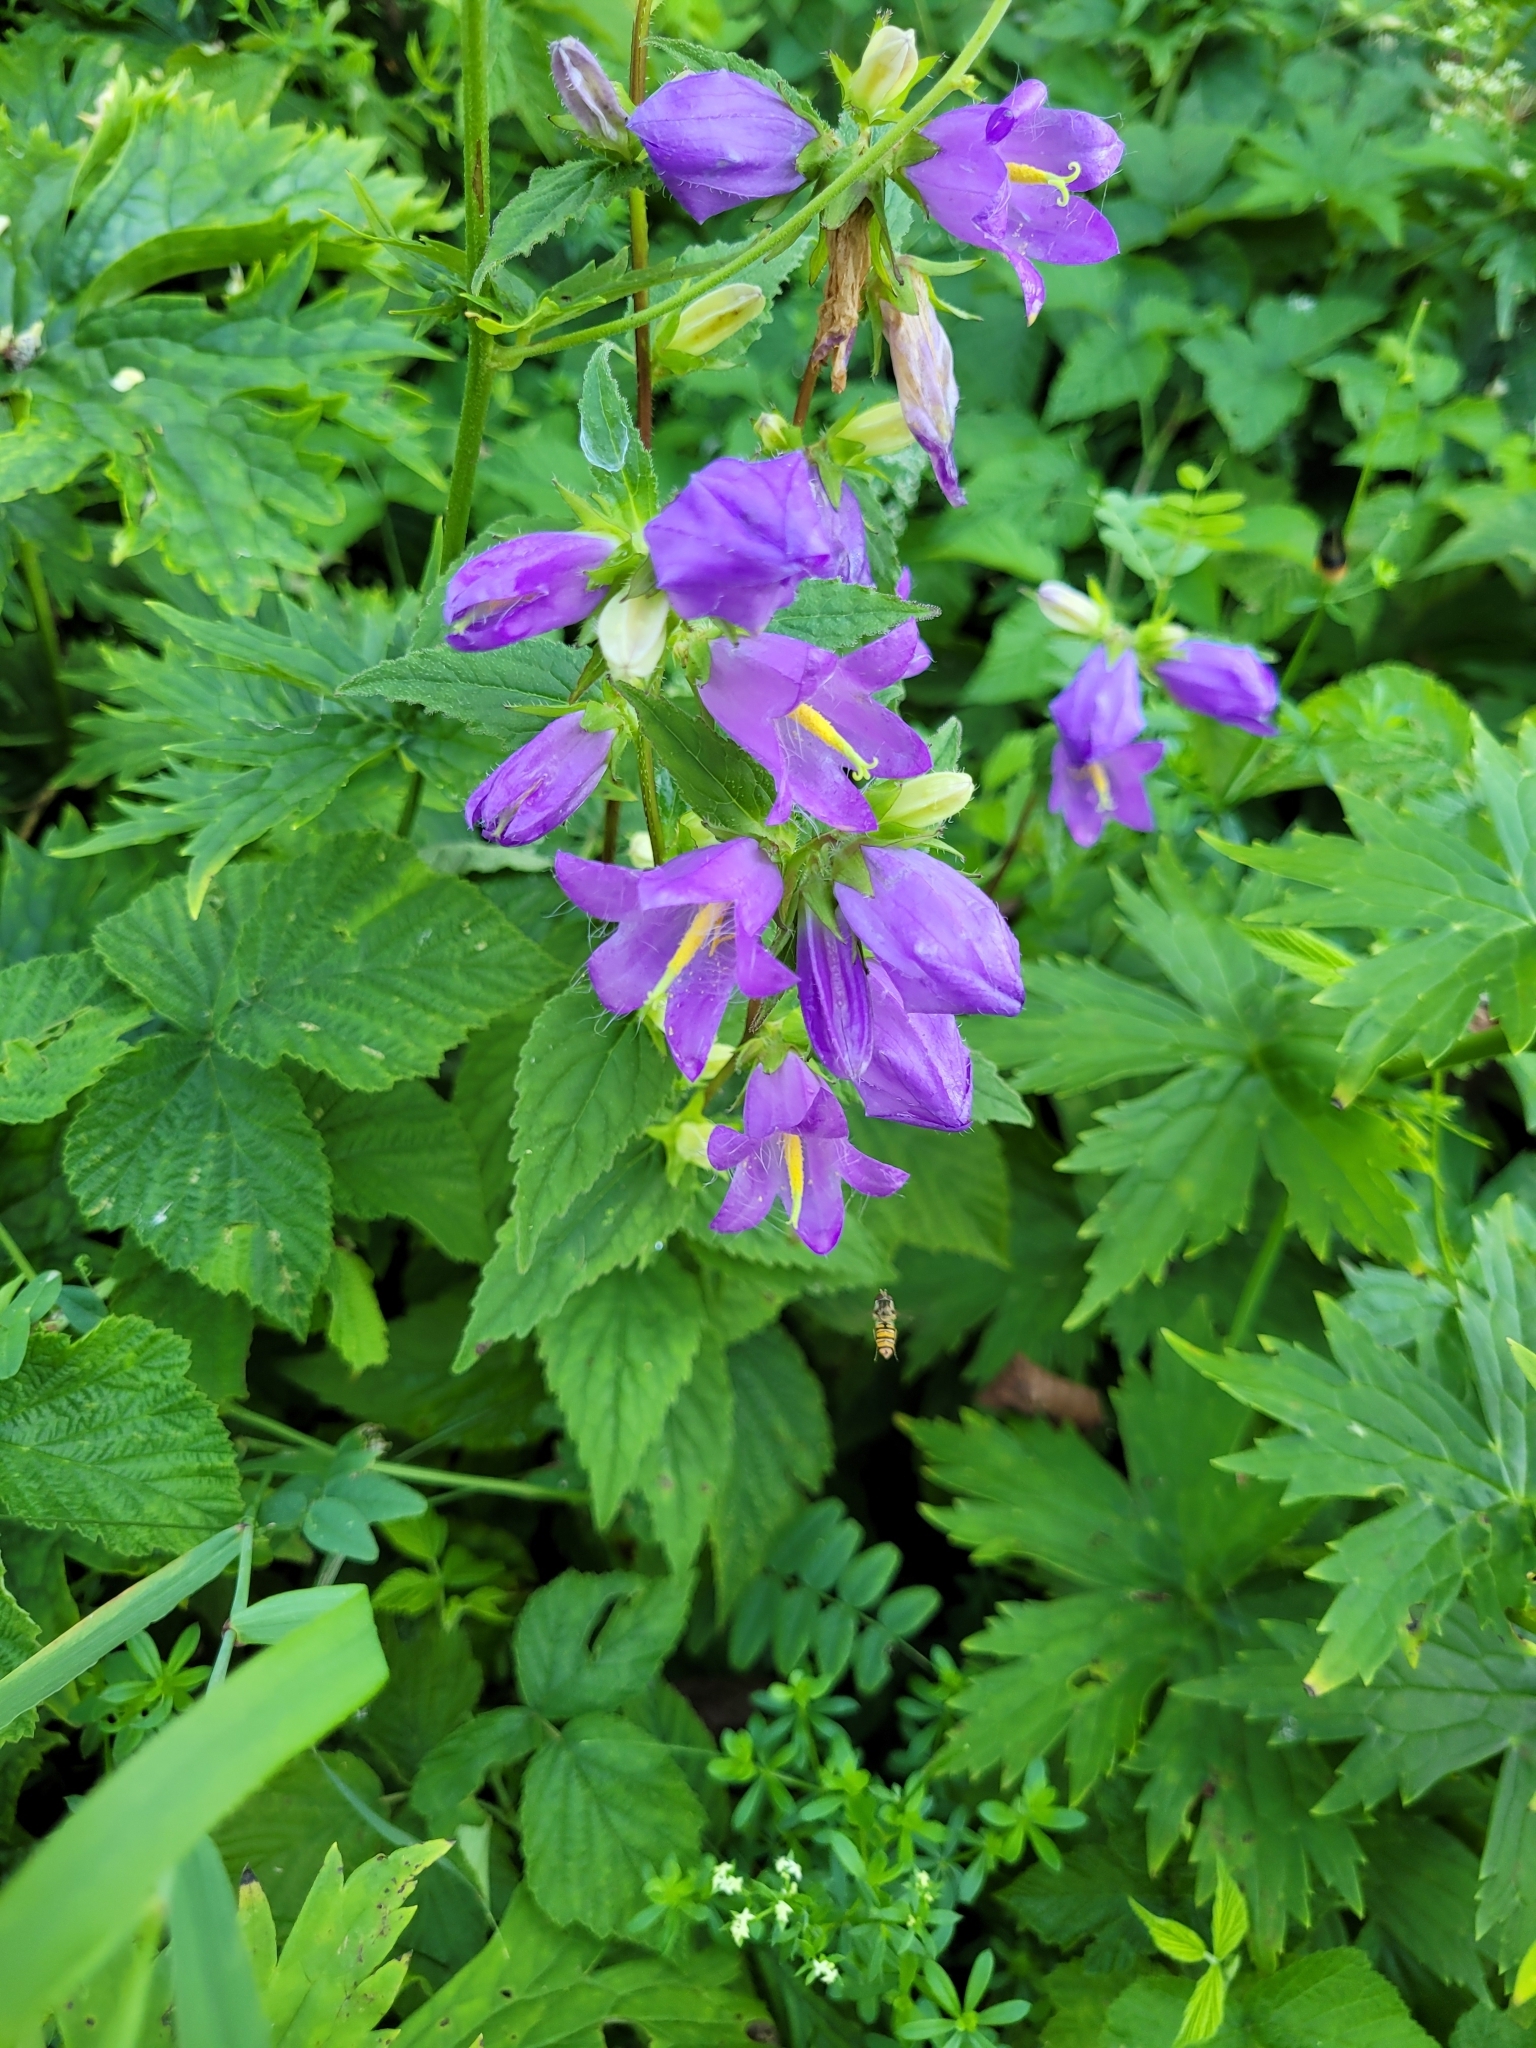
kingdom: Plantae
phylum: Tracheophyta
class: Magnoliopsida
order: Asterales
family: Campanulaceae
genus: Campanula
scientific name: Campanula trachelium
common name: Nettle-leaved bellflower
